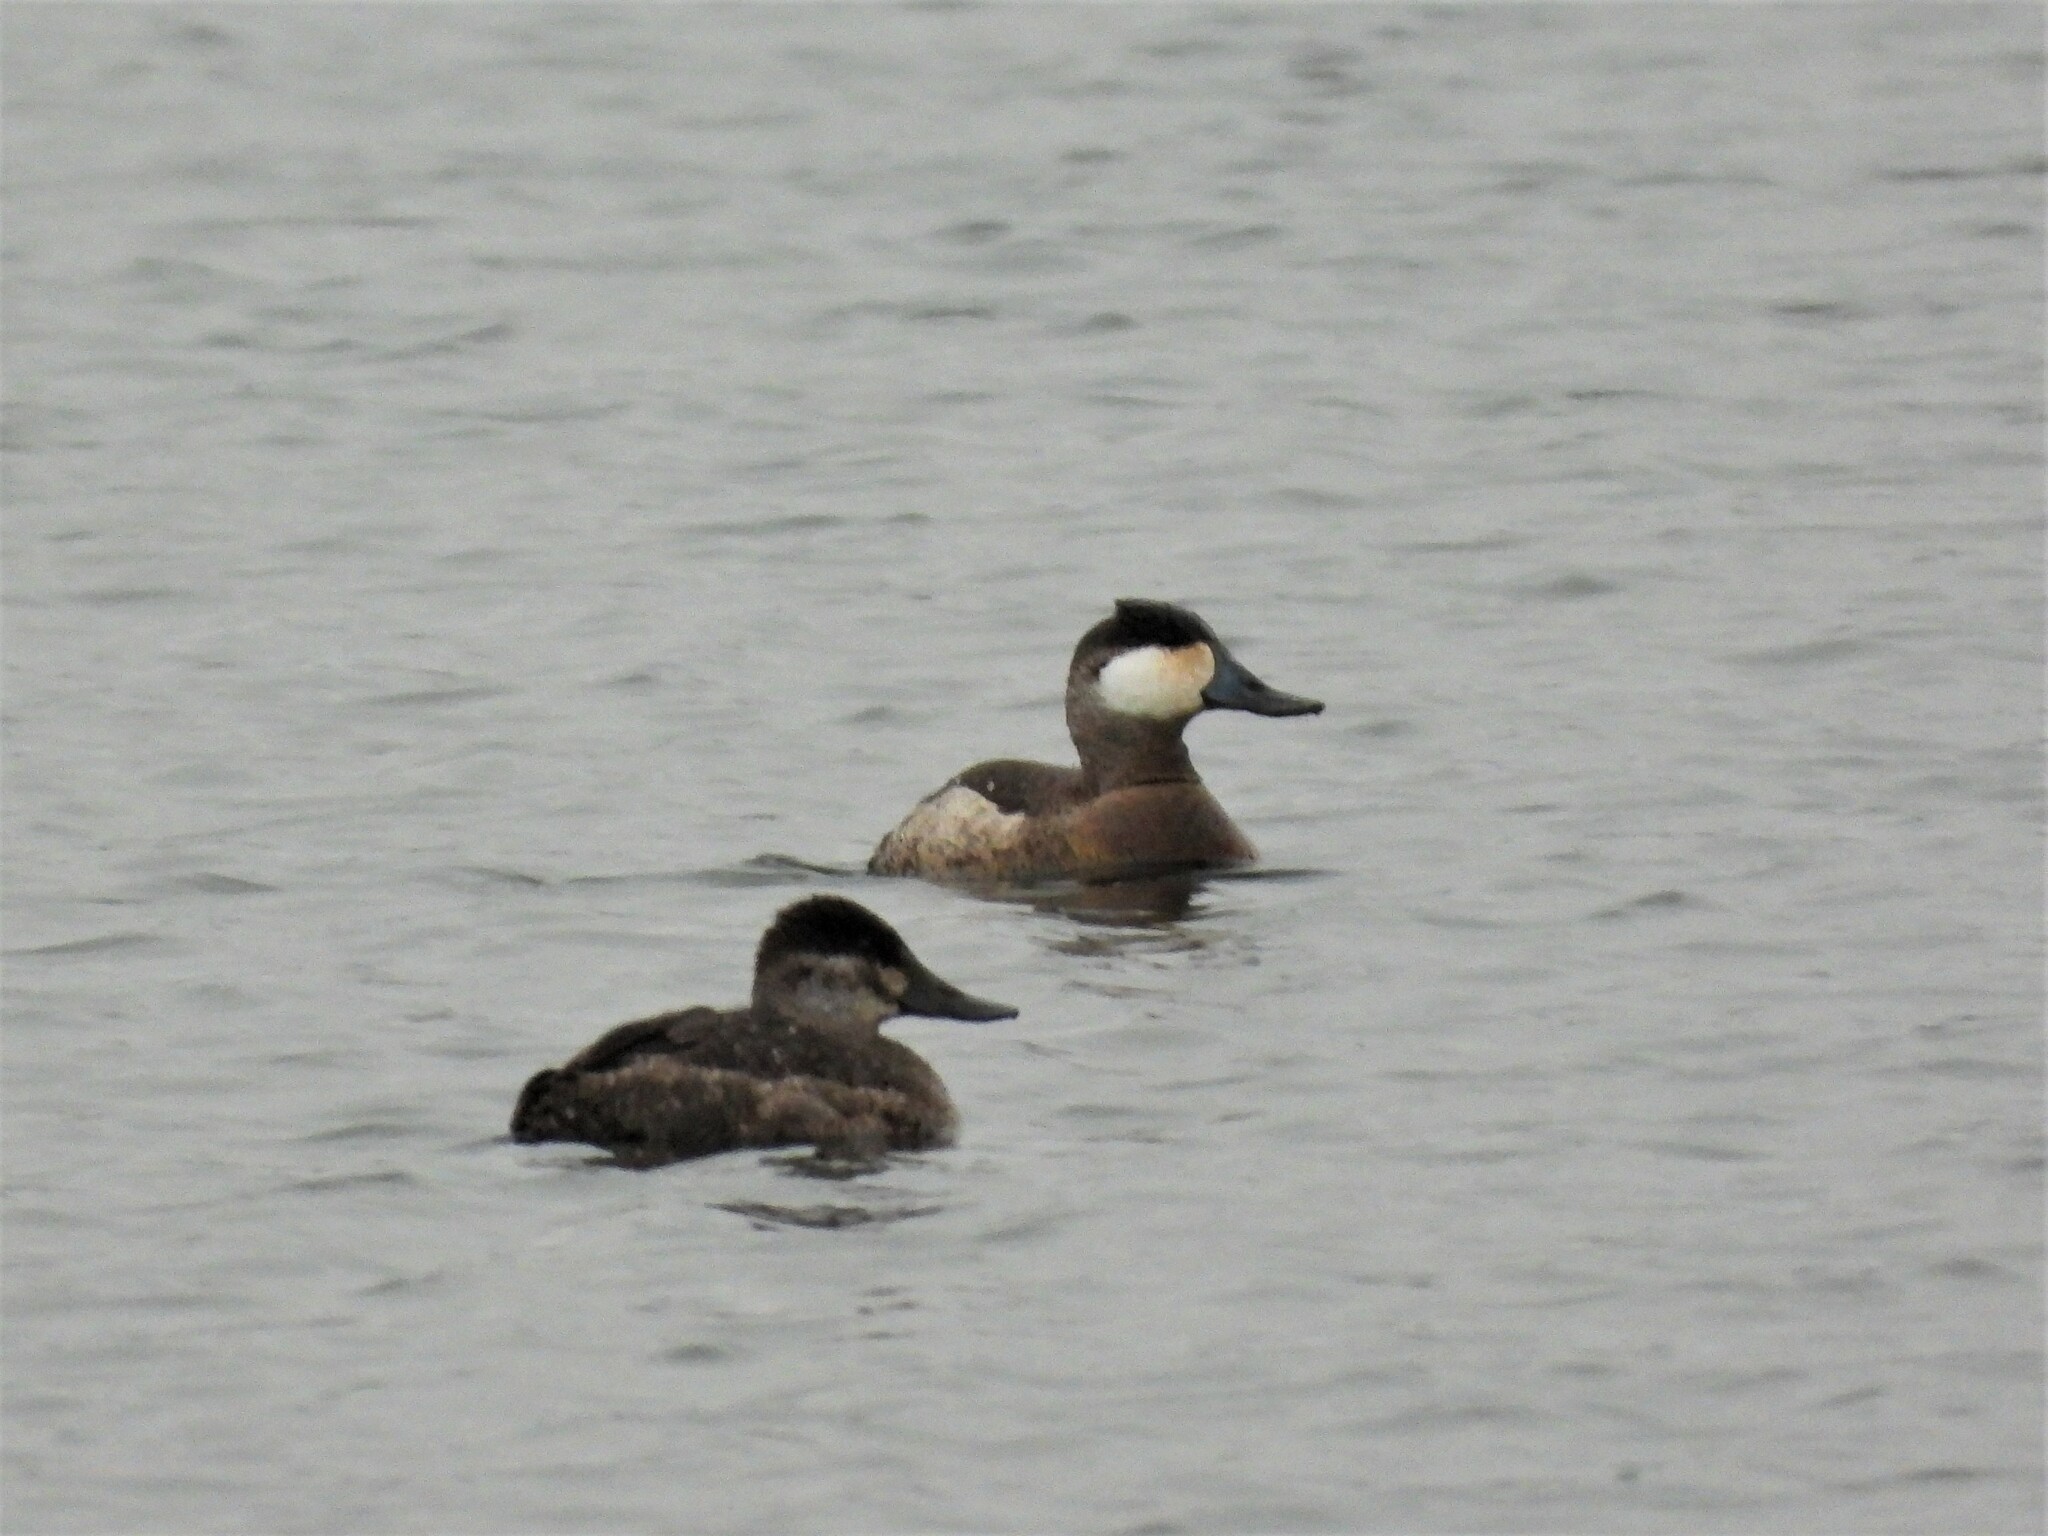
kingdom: Animalia
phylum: Chordata
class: Aves
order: Anseriformes
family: Anatidae
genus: Oxyura
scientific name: Oxyura jamaicensis
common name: Ruddy duck
